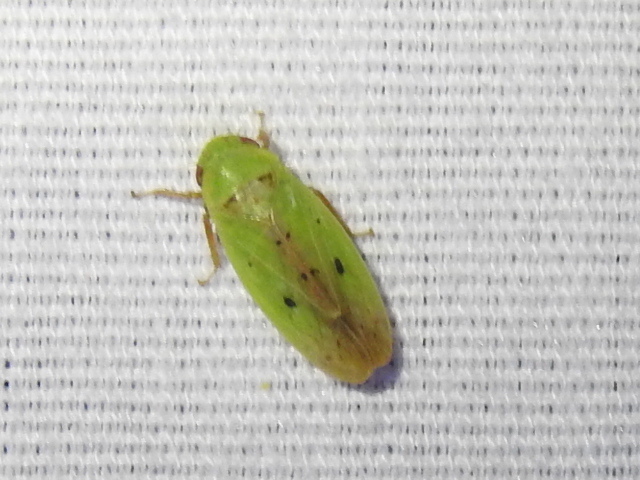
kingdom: Animalia
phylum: Arthropoda
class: Insecta
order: Hemiptera
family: Cicadellidae
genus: Ponana
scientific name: Ponana
